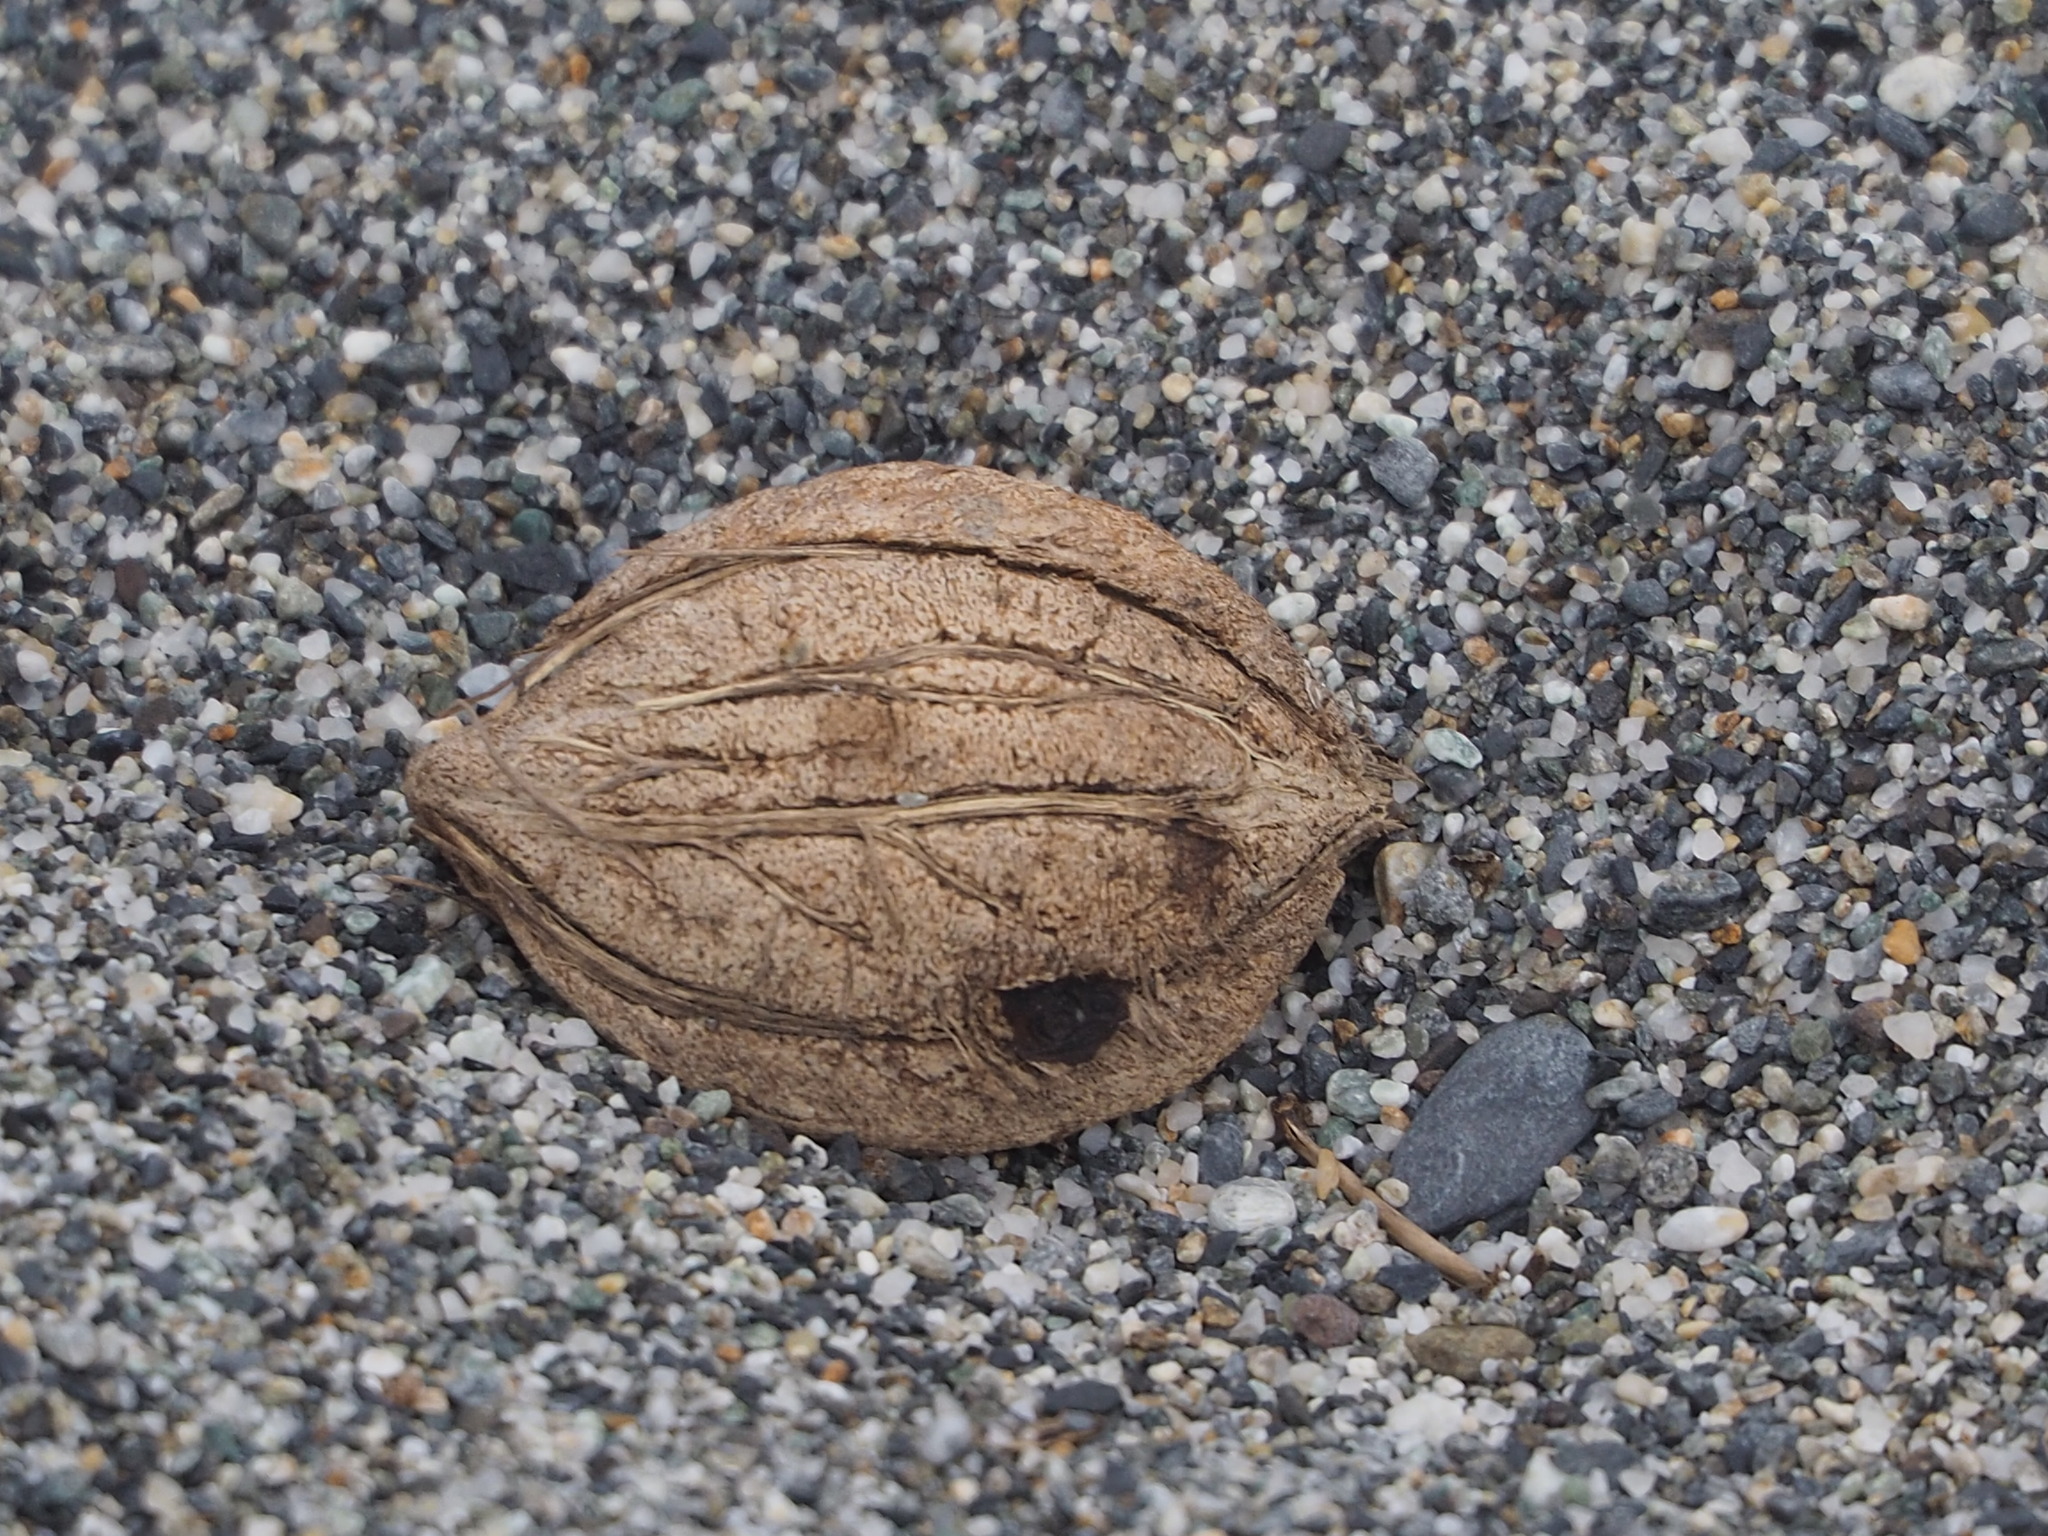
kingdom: Plantae
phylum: Tracheophyta
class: Magnoliopsida
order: Myrtales
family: Combretaceae
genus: Terminalia
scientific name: Terminalia catappa
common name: Tropical almond
